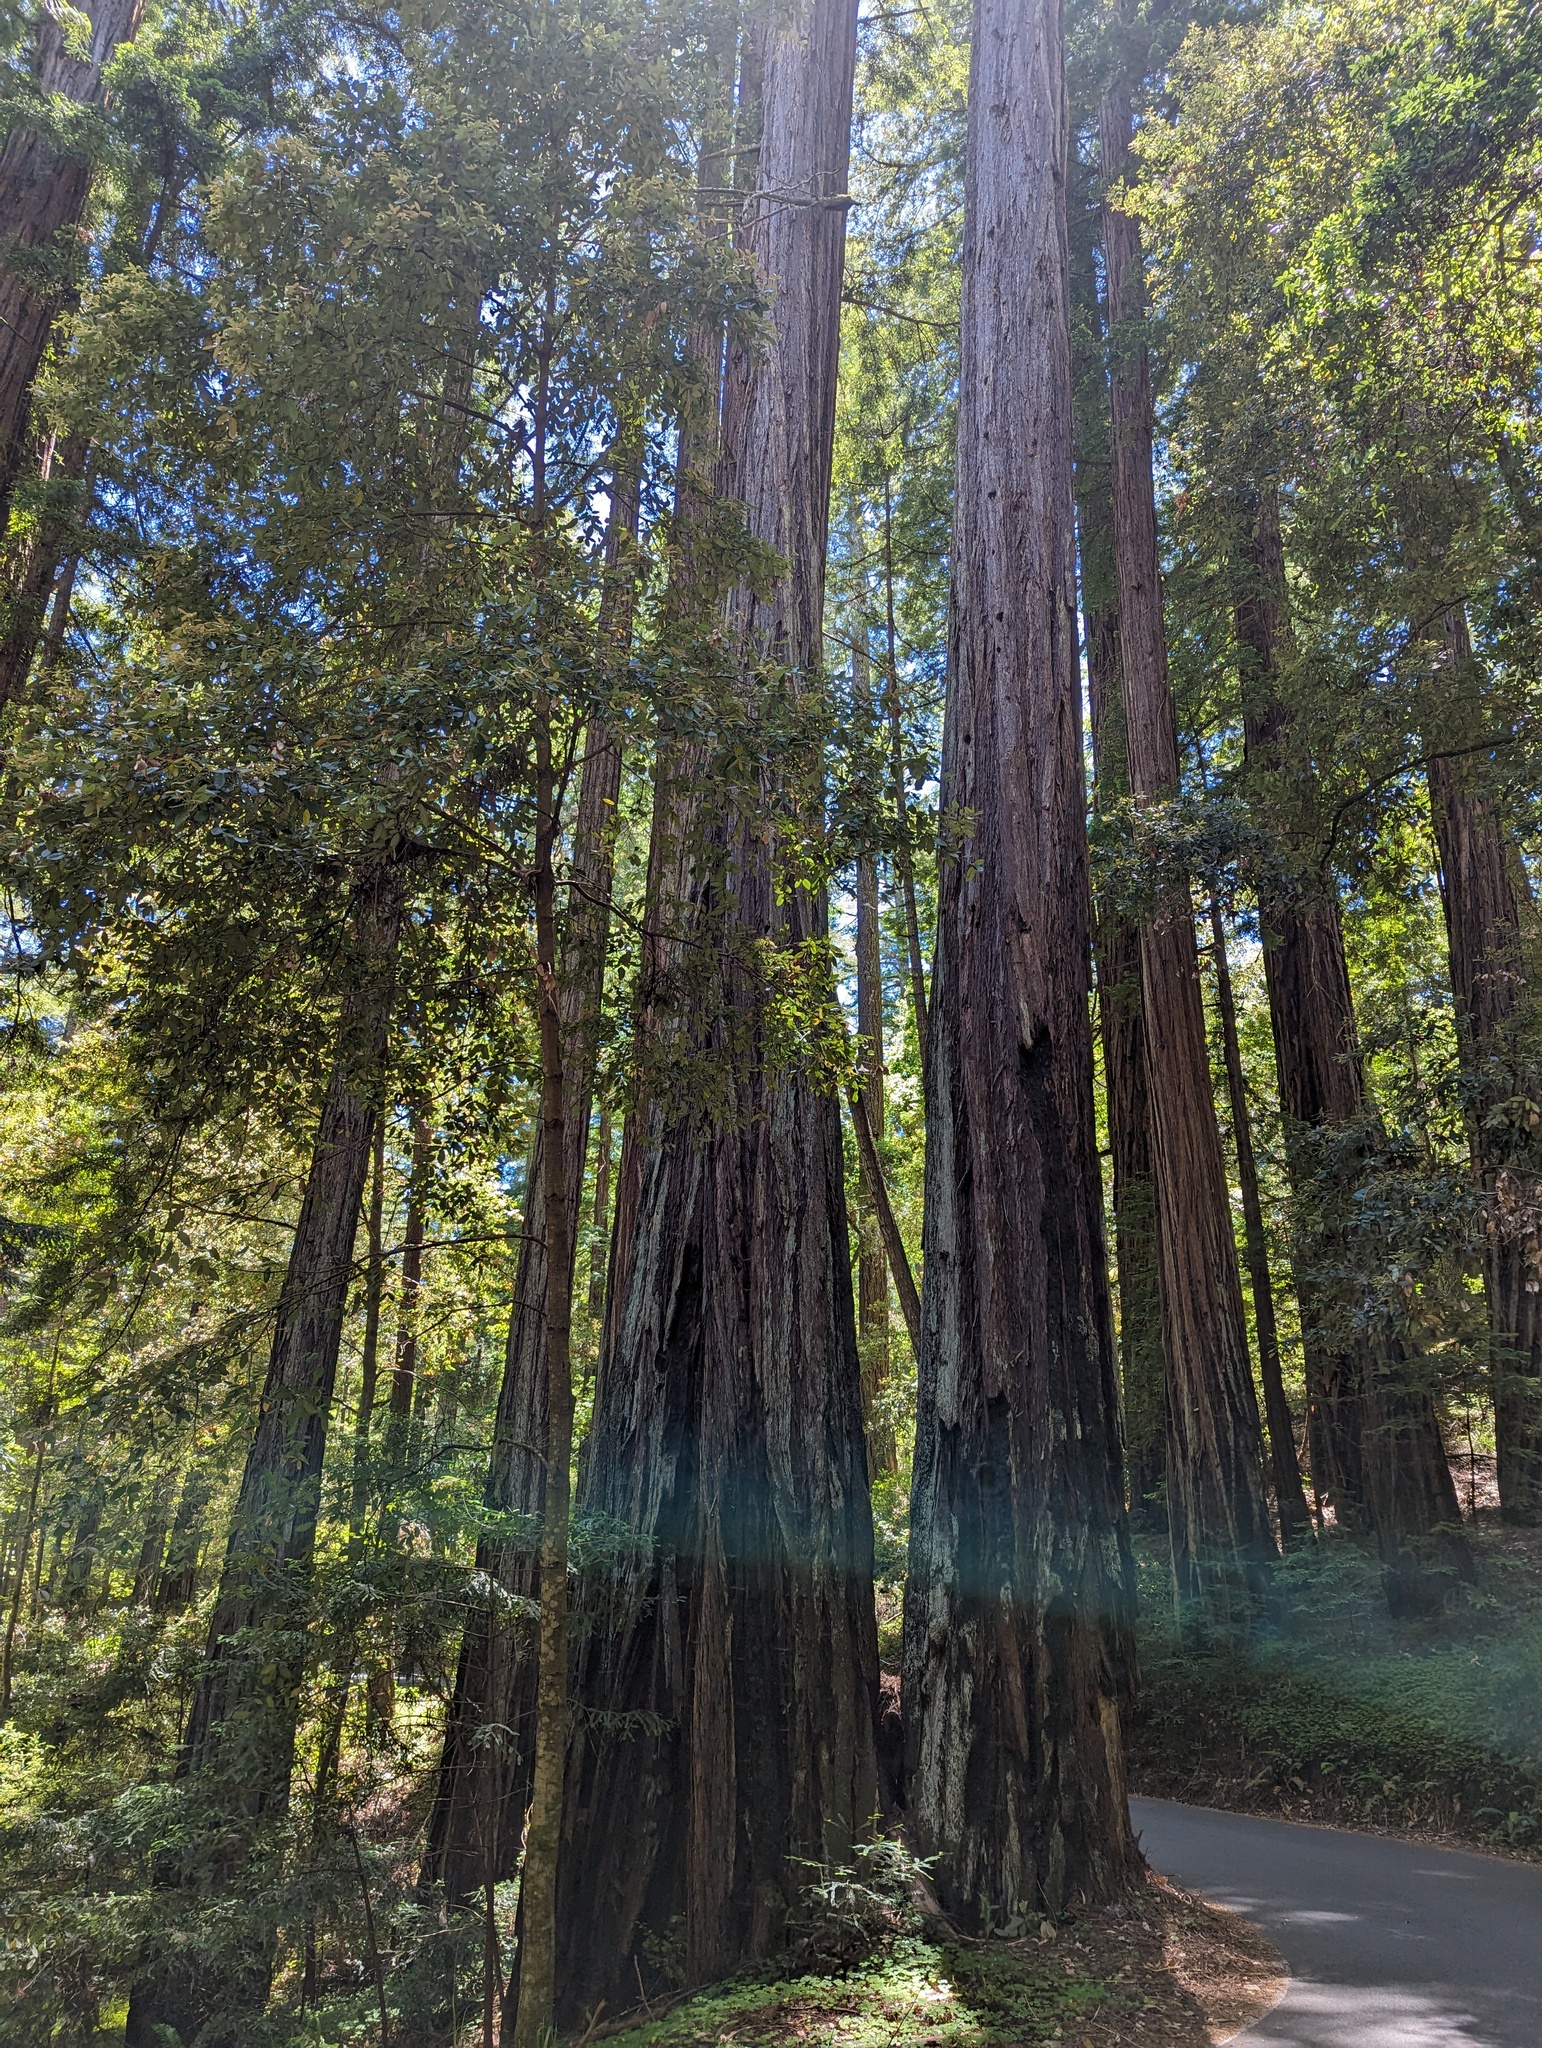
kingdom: Plantae
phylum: Tracheophyta
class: Pinopsida
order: Pinales
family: Cupressaceae
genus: Sequoia
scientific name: Sequoia sempervirens
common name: Coast redwood
